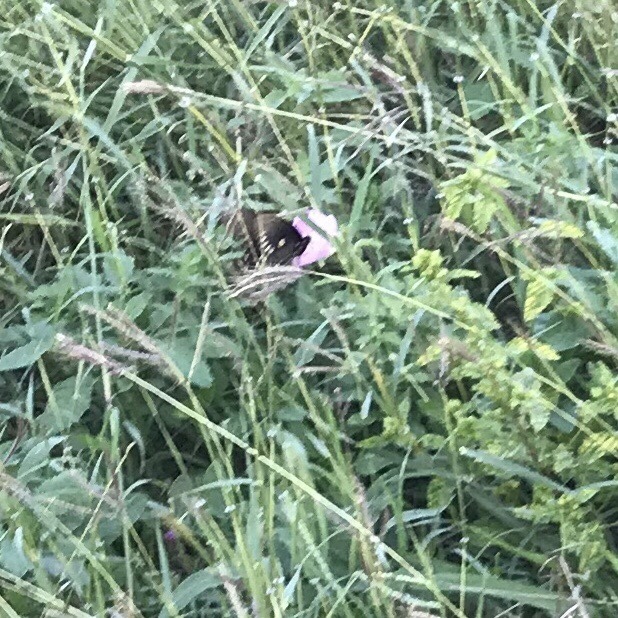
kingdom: Animalia
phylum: Arthropoda
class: Insecta
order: Lepidoptera
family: Papilionidae
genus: Battus
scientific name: Battus philenor
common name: Pipevine swallowtail
